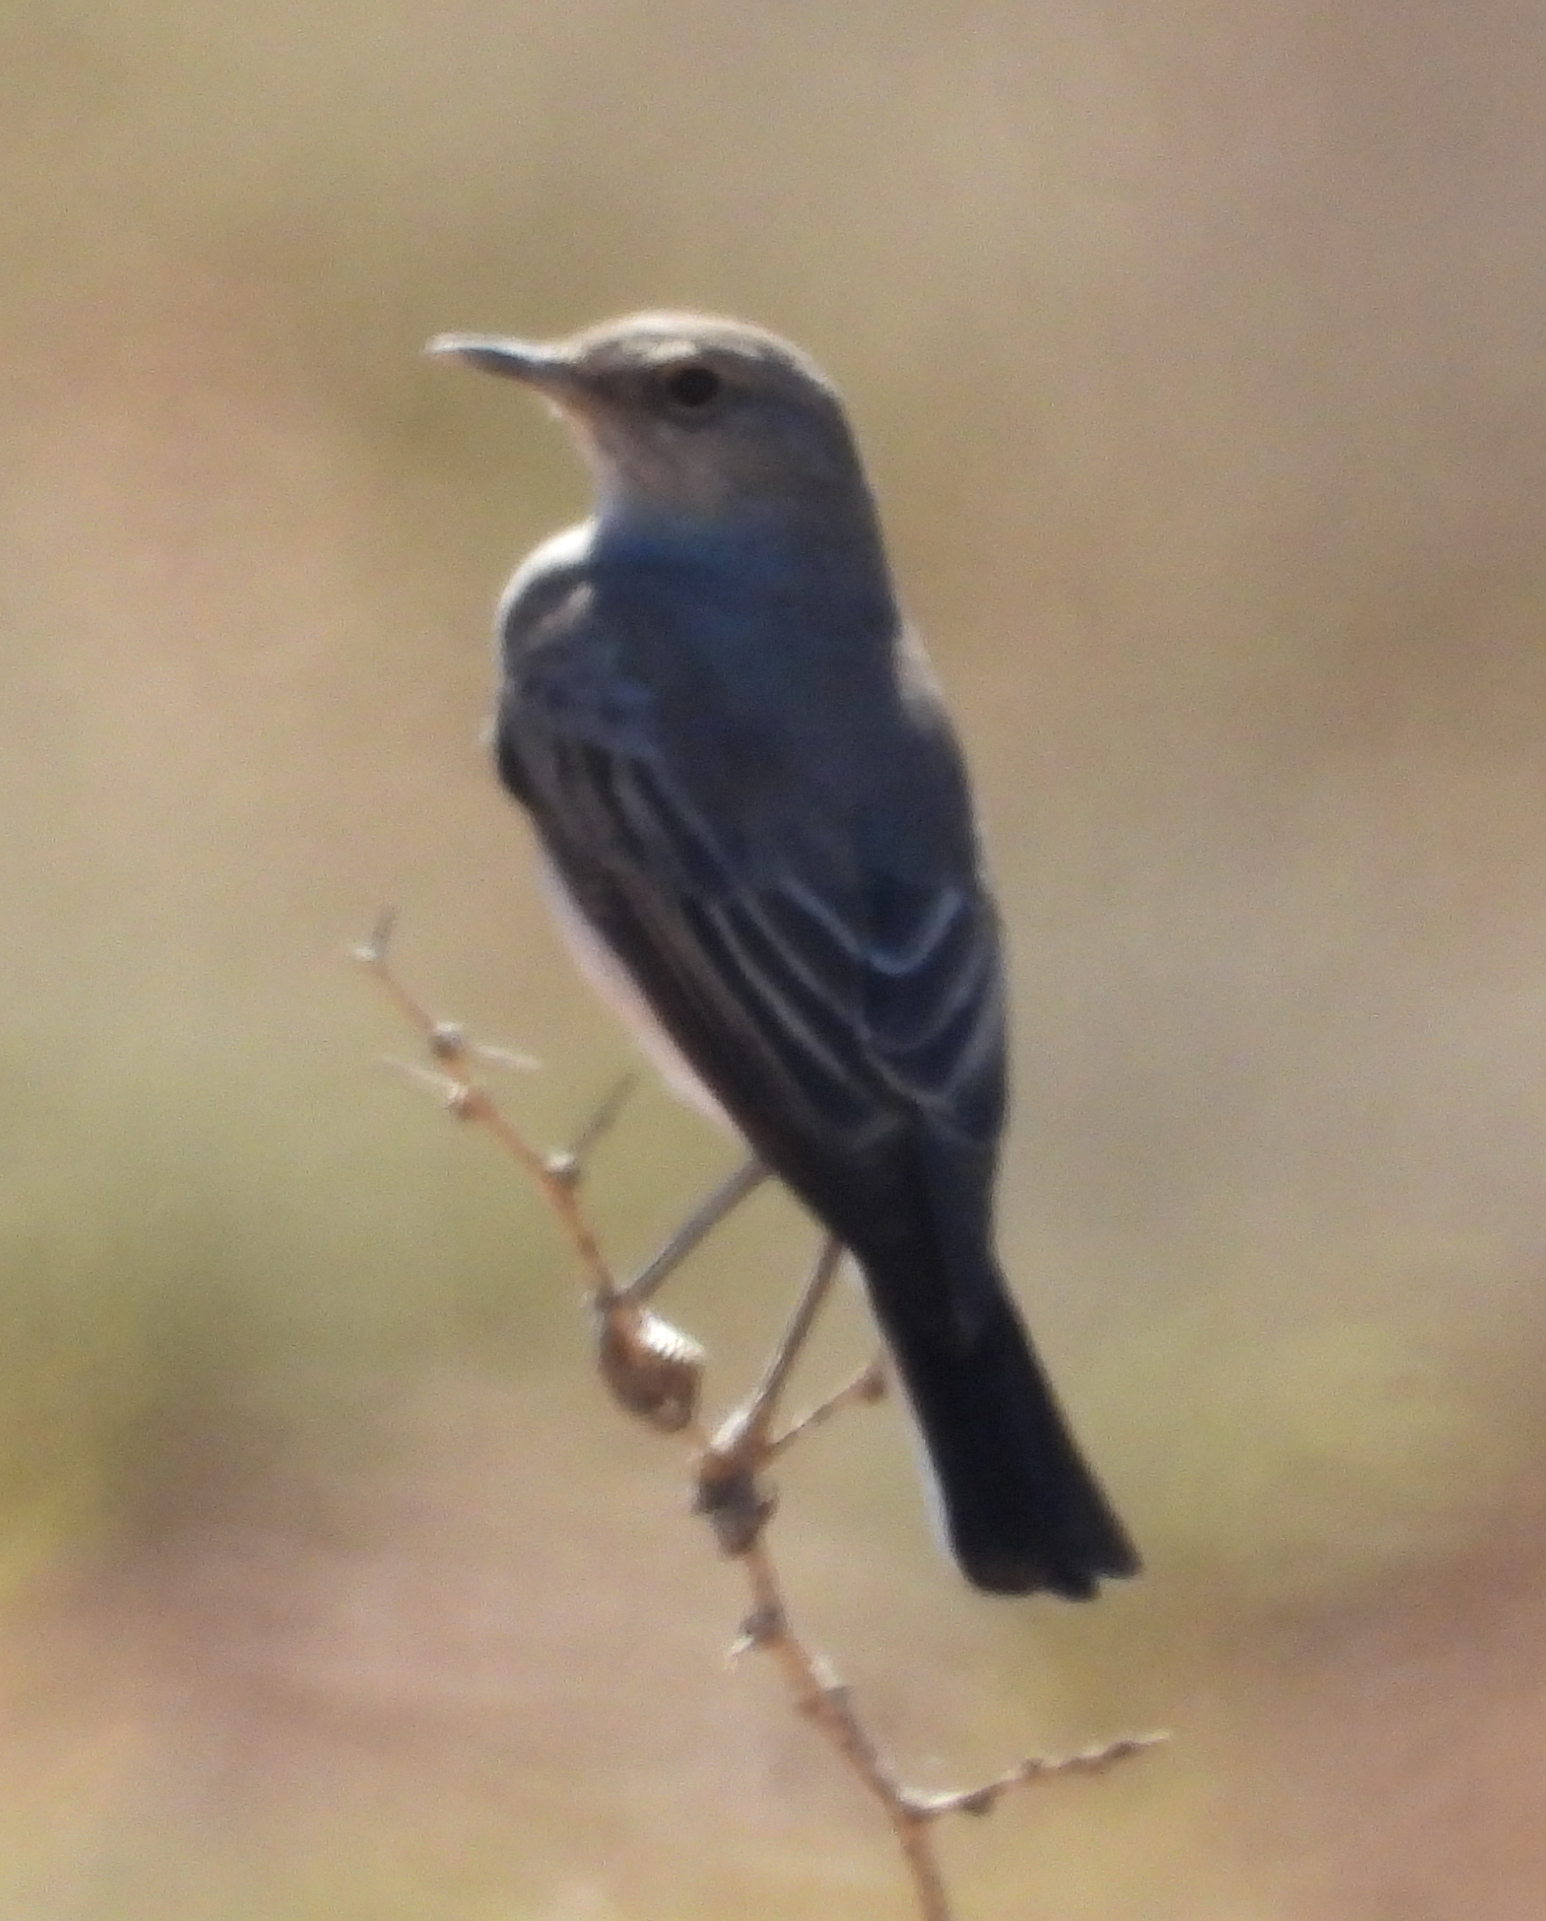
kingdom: Animalia
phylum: Chordata
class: Aves
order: Passeriformes
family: Muscicapidae
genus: Emarginata
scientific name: Emarginata schlegelii
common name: Karoo chat
